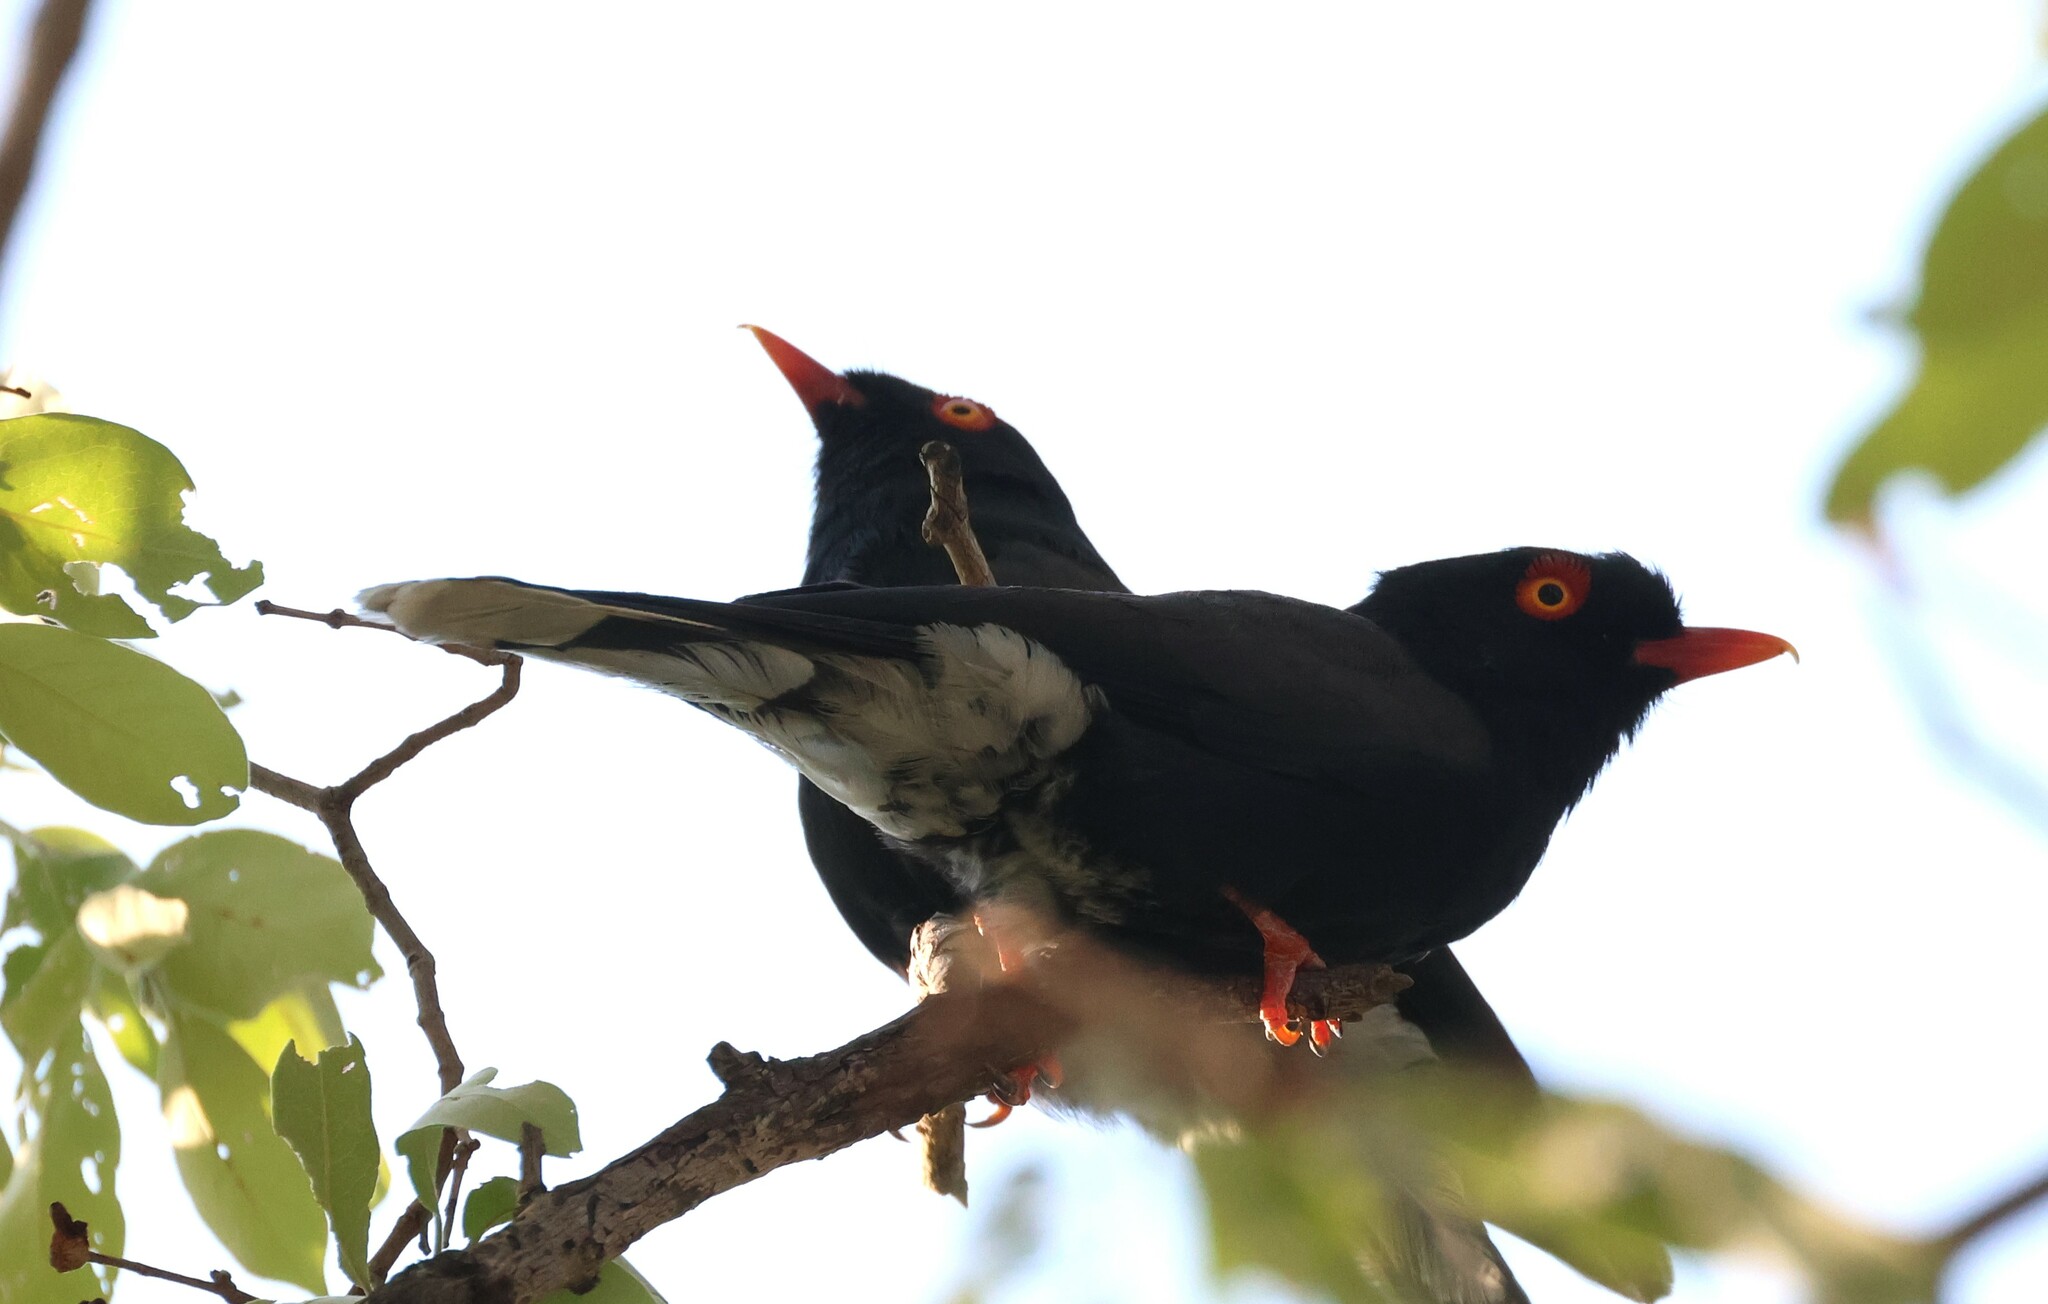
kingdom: Animalia
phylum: Chordata
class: Aves
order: Passeriformes
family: Prionopidae
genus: Prionops
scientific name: Prionops retzii
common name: Retz's helmetshrike
